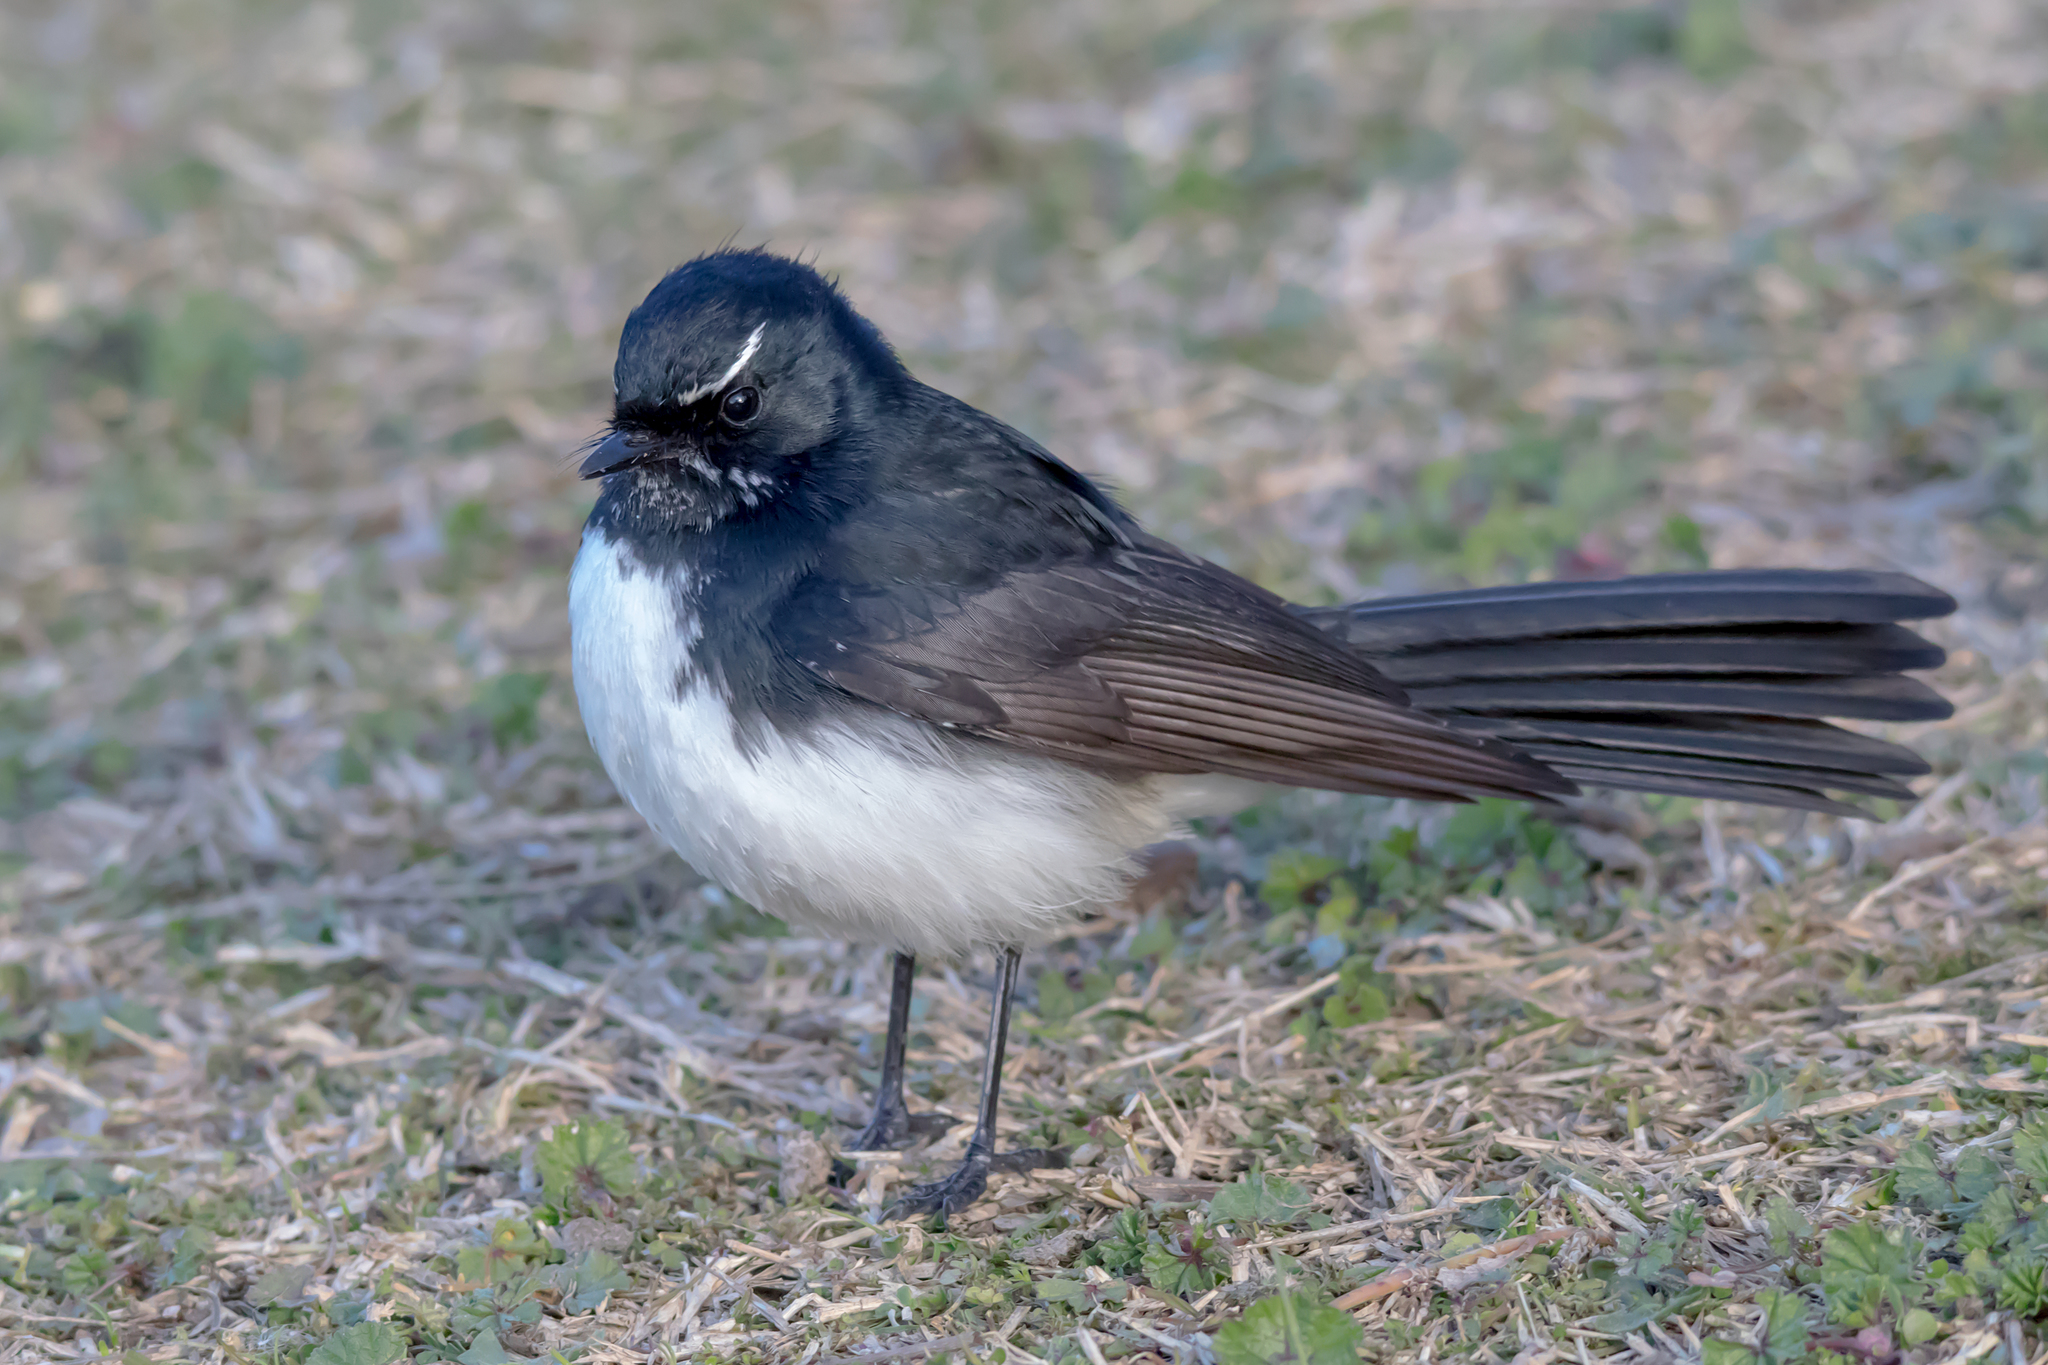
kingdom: Animalia
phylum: Chordata
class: Aves
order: Passeriformes
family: Rhipiduridae
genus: Rhipidura
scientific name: Rhipidura leucophrys
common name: Willie wagtail
